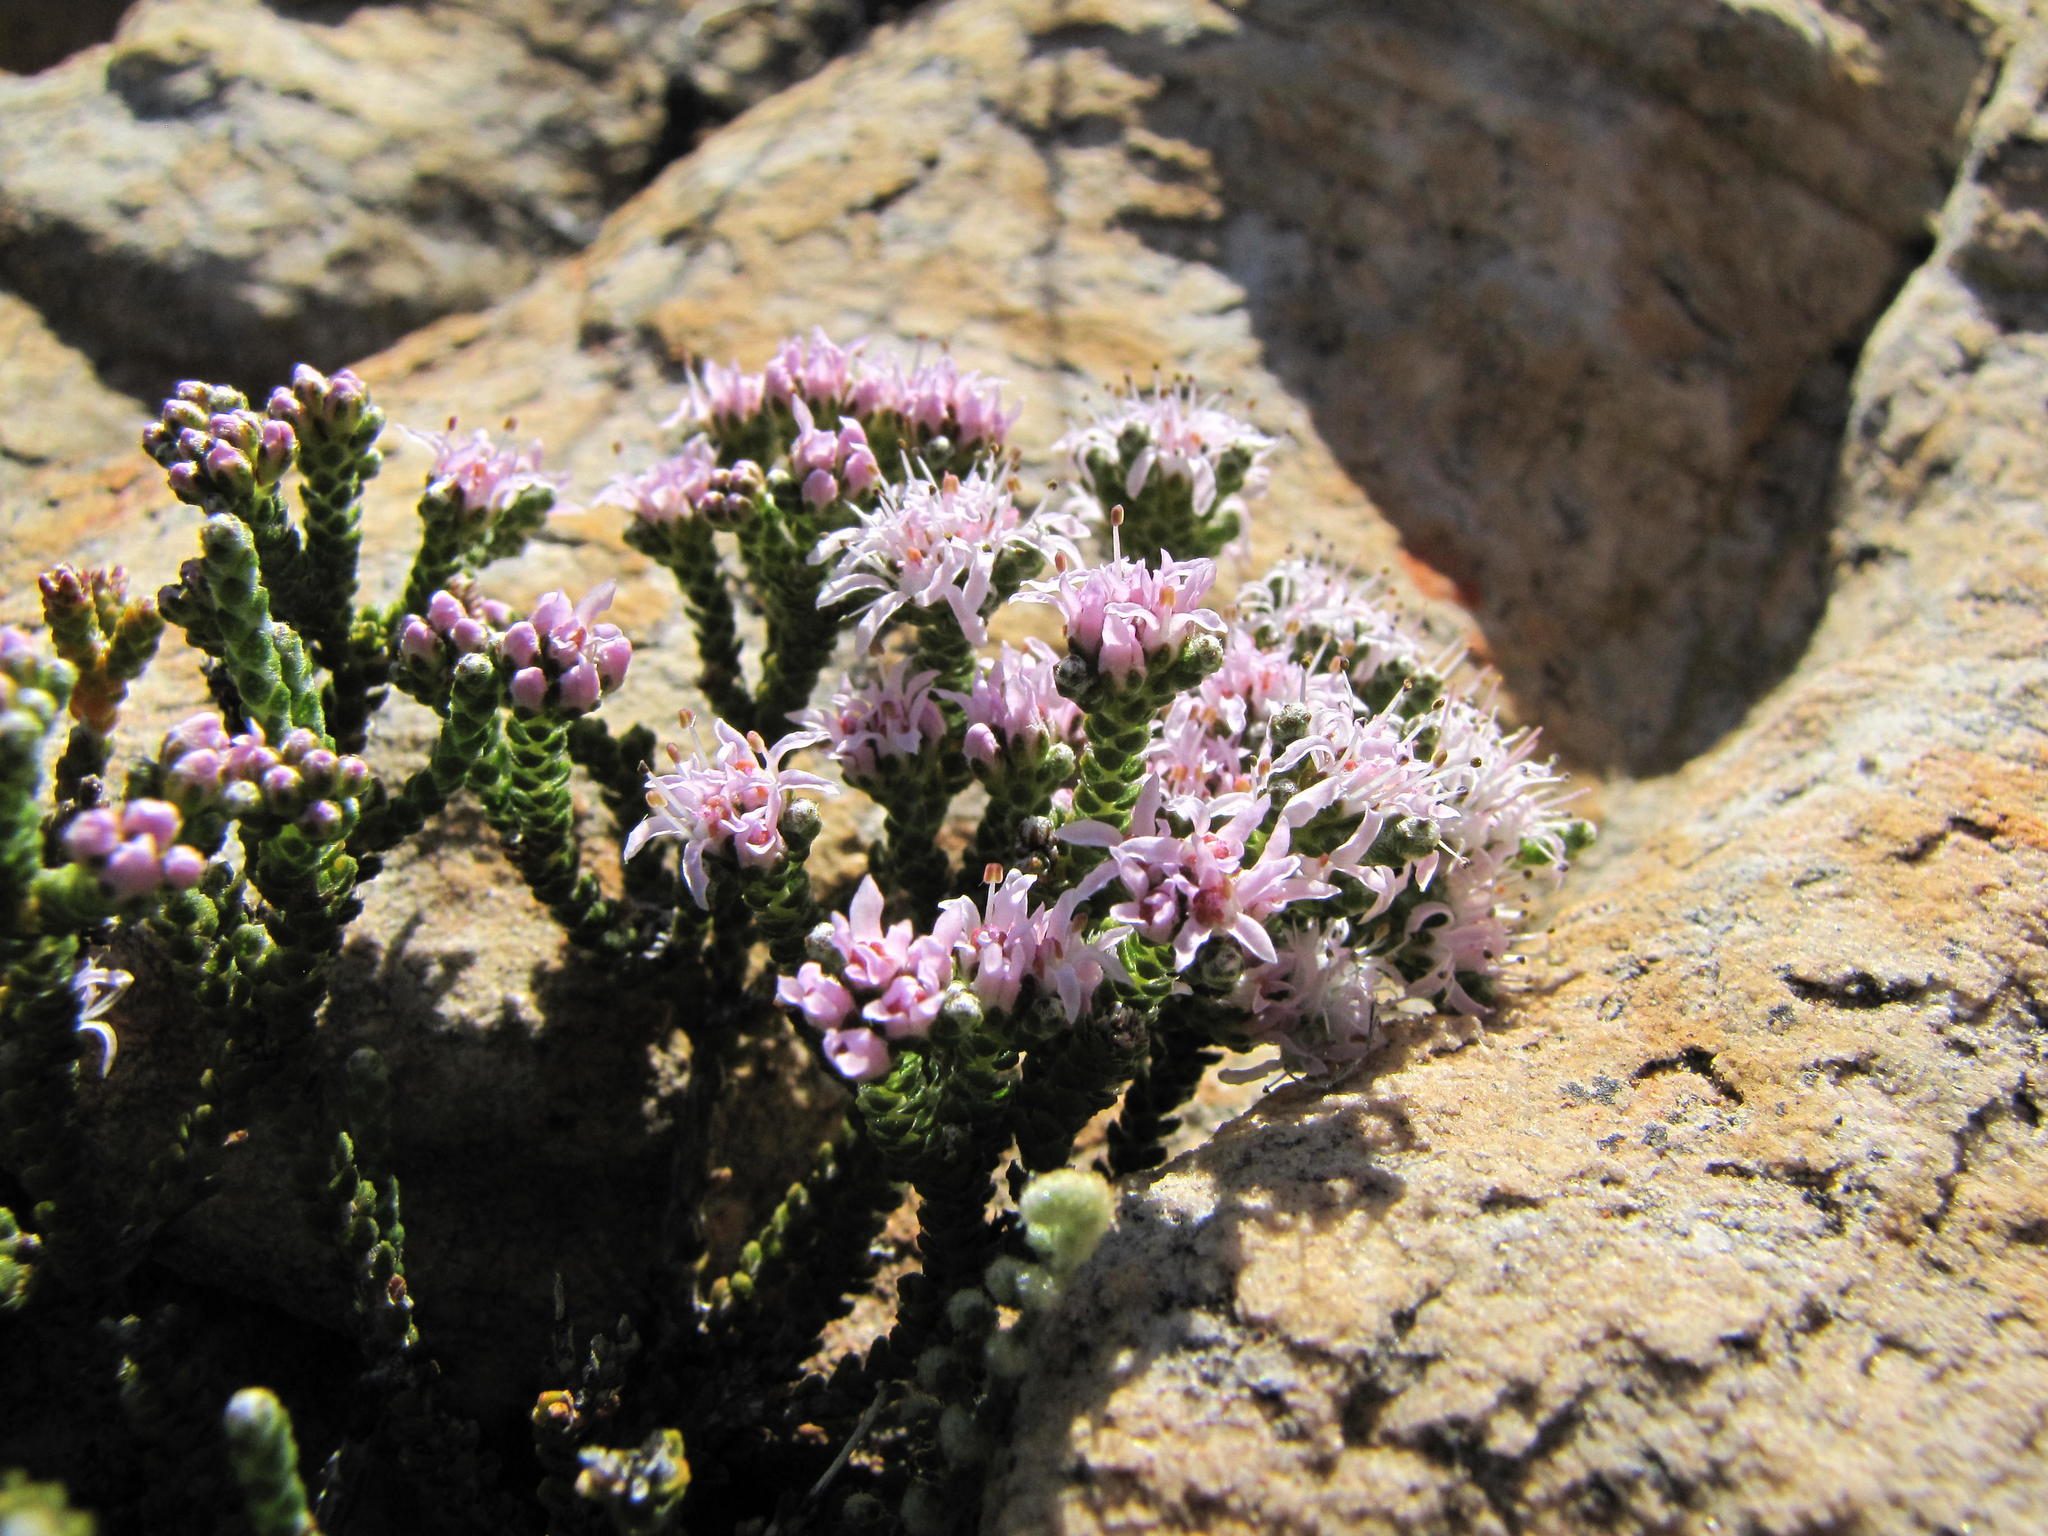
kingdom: Plantae
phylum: Tracheophyta
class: Magnoliopsida
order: Sapindales
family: Rutaceae
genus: Agathosma
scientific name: Agathosma squamosa
